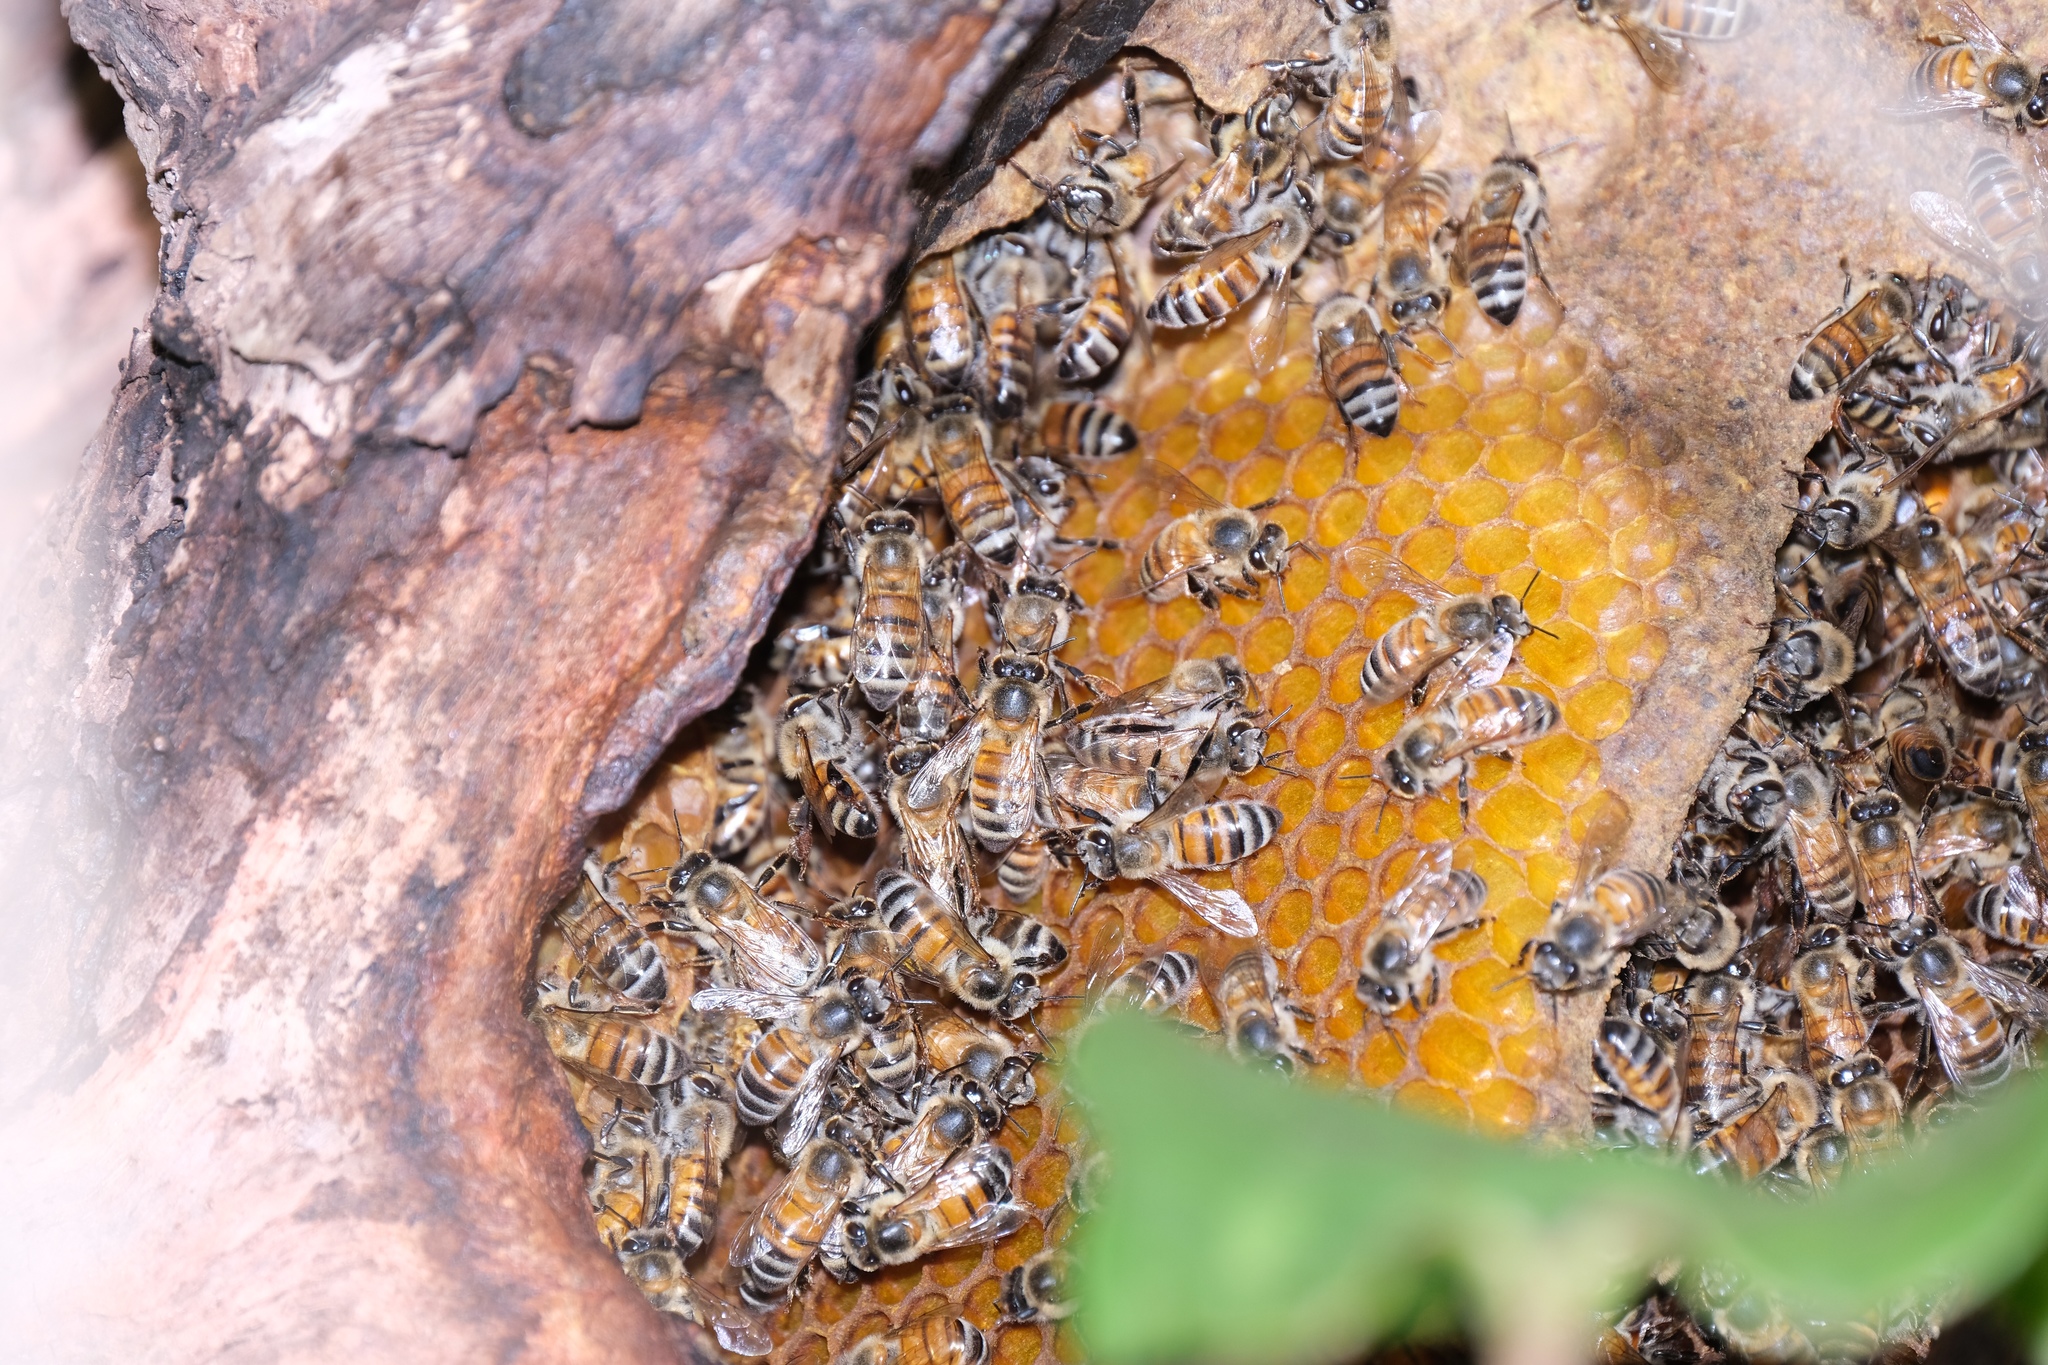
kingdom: Animalia
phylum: Arthropoda
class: Insecta
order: Hymenoptera
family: Apidae
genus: Apis
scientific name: Apis mellifera
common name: Honey bee
